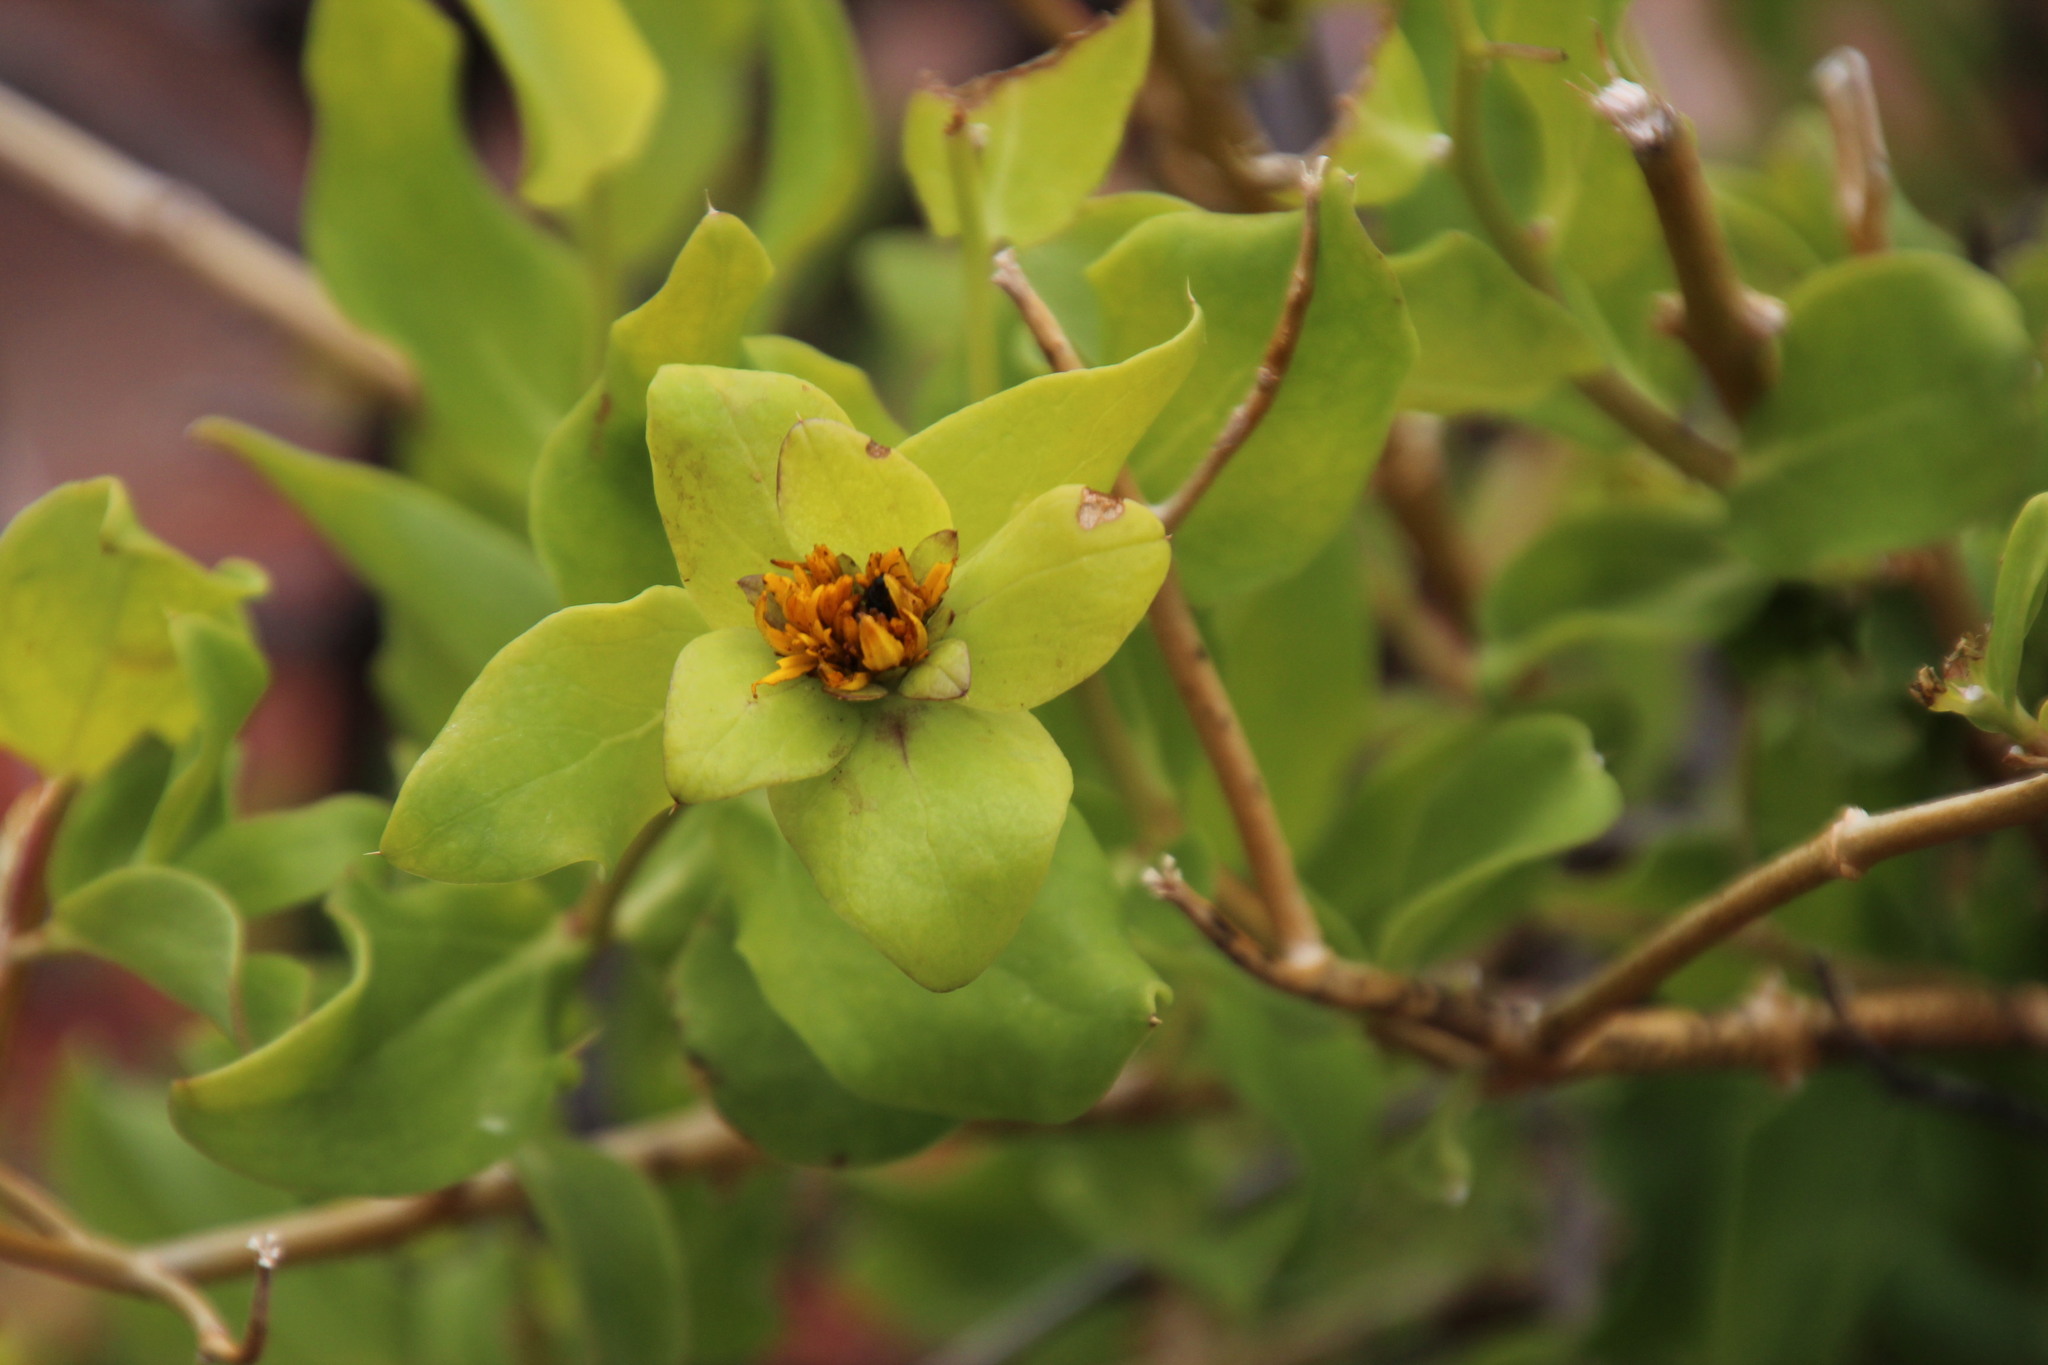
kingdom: Plantae
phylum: Tracheophyta
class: Magnoliopsida
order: Asterales
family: Asteraceae
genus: Didelta
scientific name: Didelta spinosa
